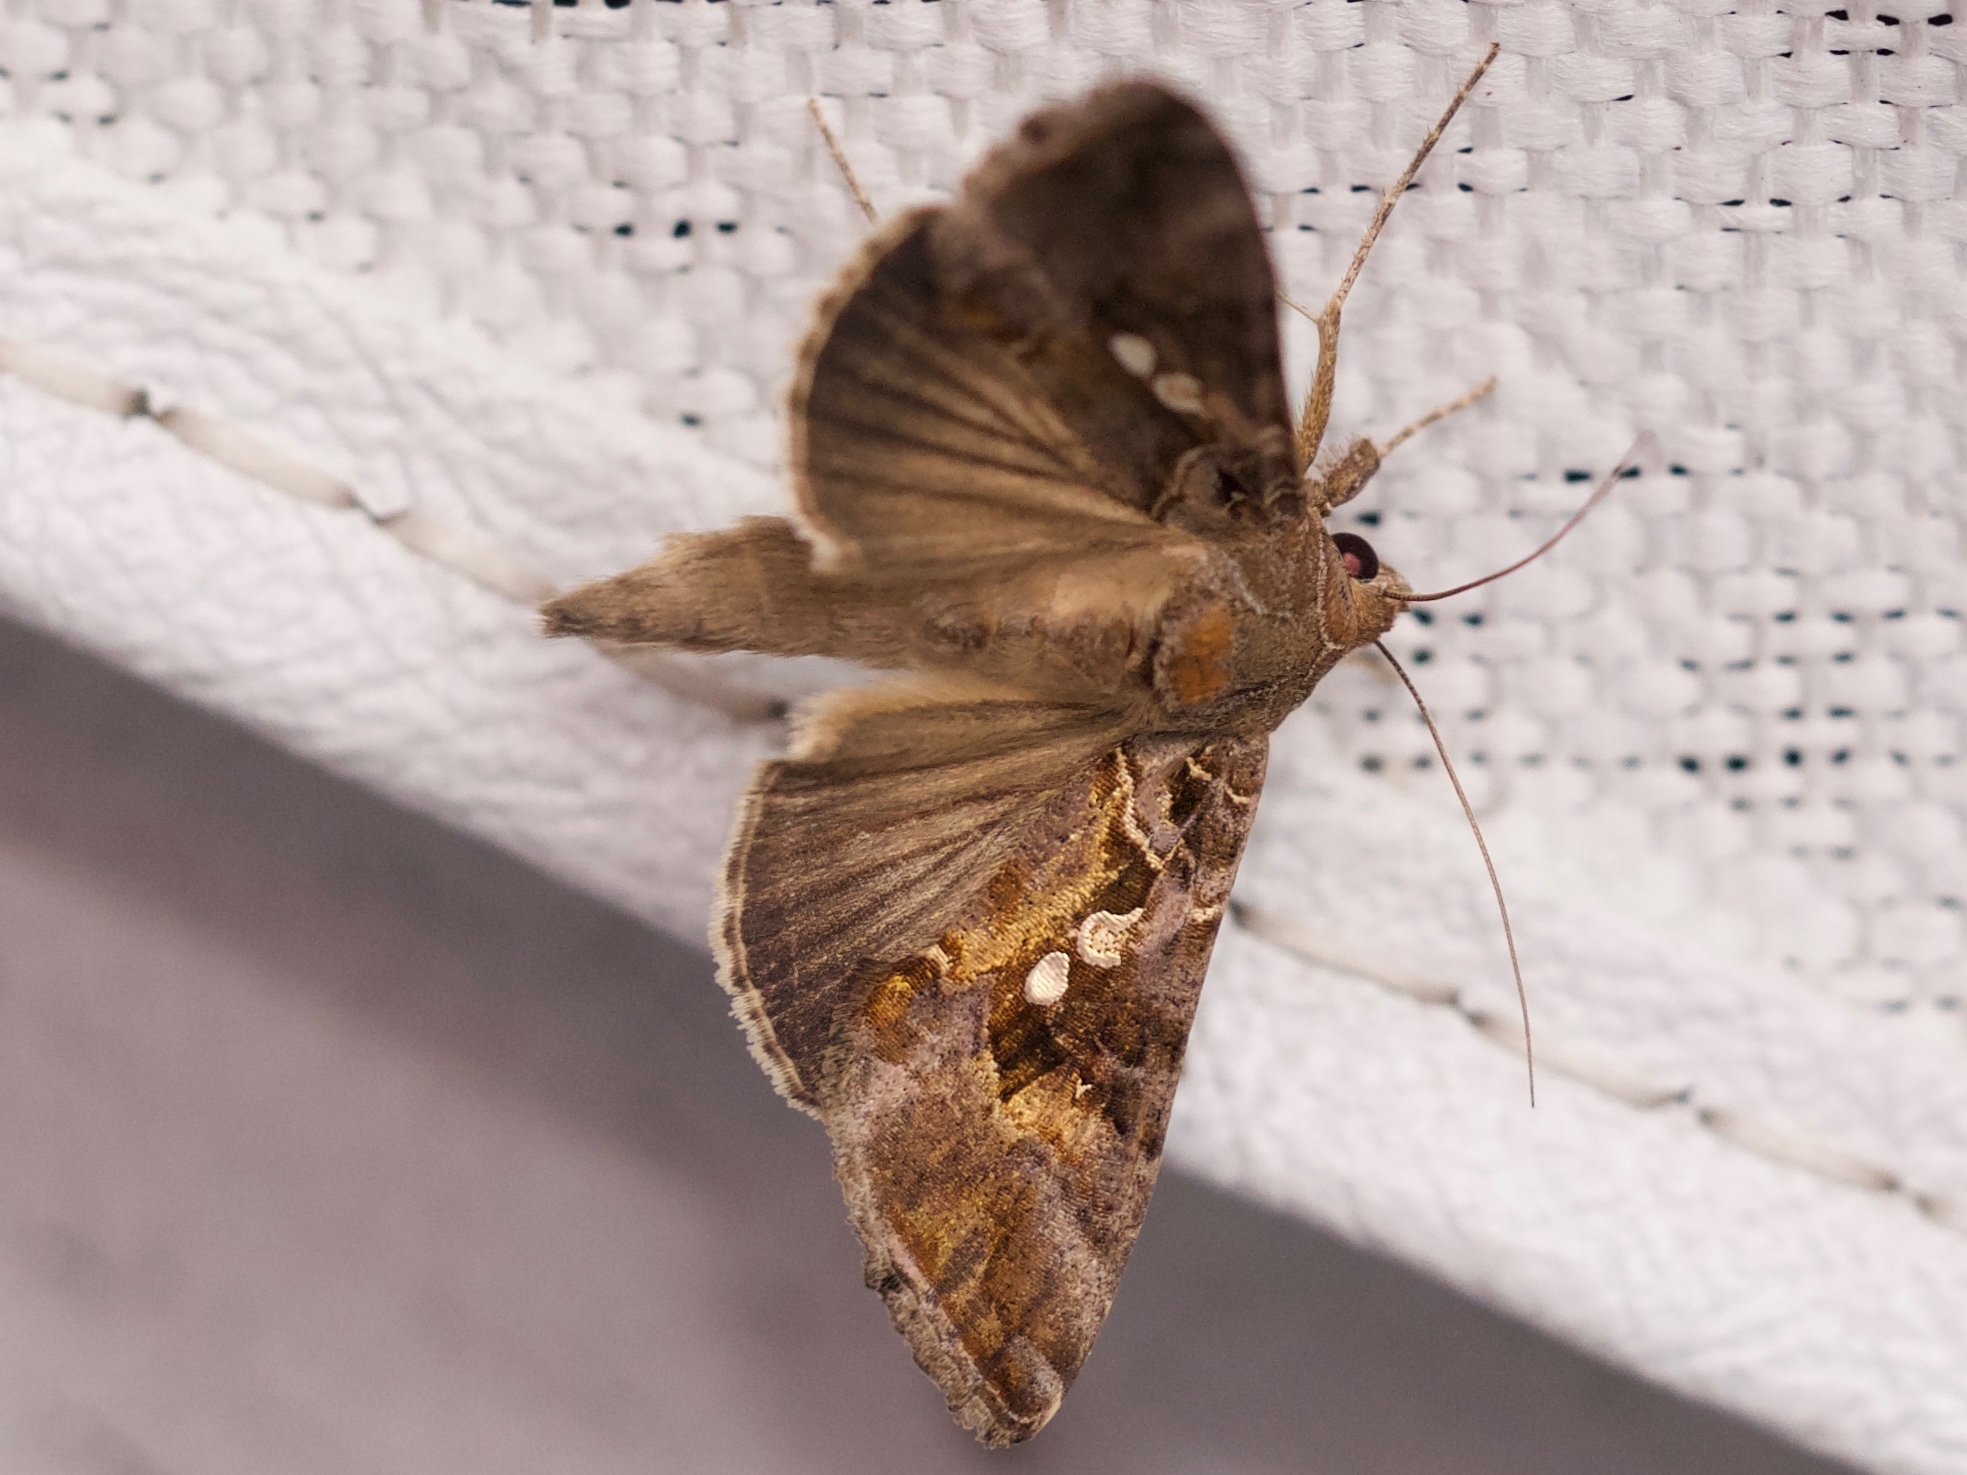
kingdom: Animalia
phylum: Arthropoda
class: Insecta
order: Lepidoptera
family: Noctuidae
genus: Chrysodeixis
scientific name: Chrysodeixis includens
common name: Cutworm moth
